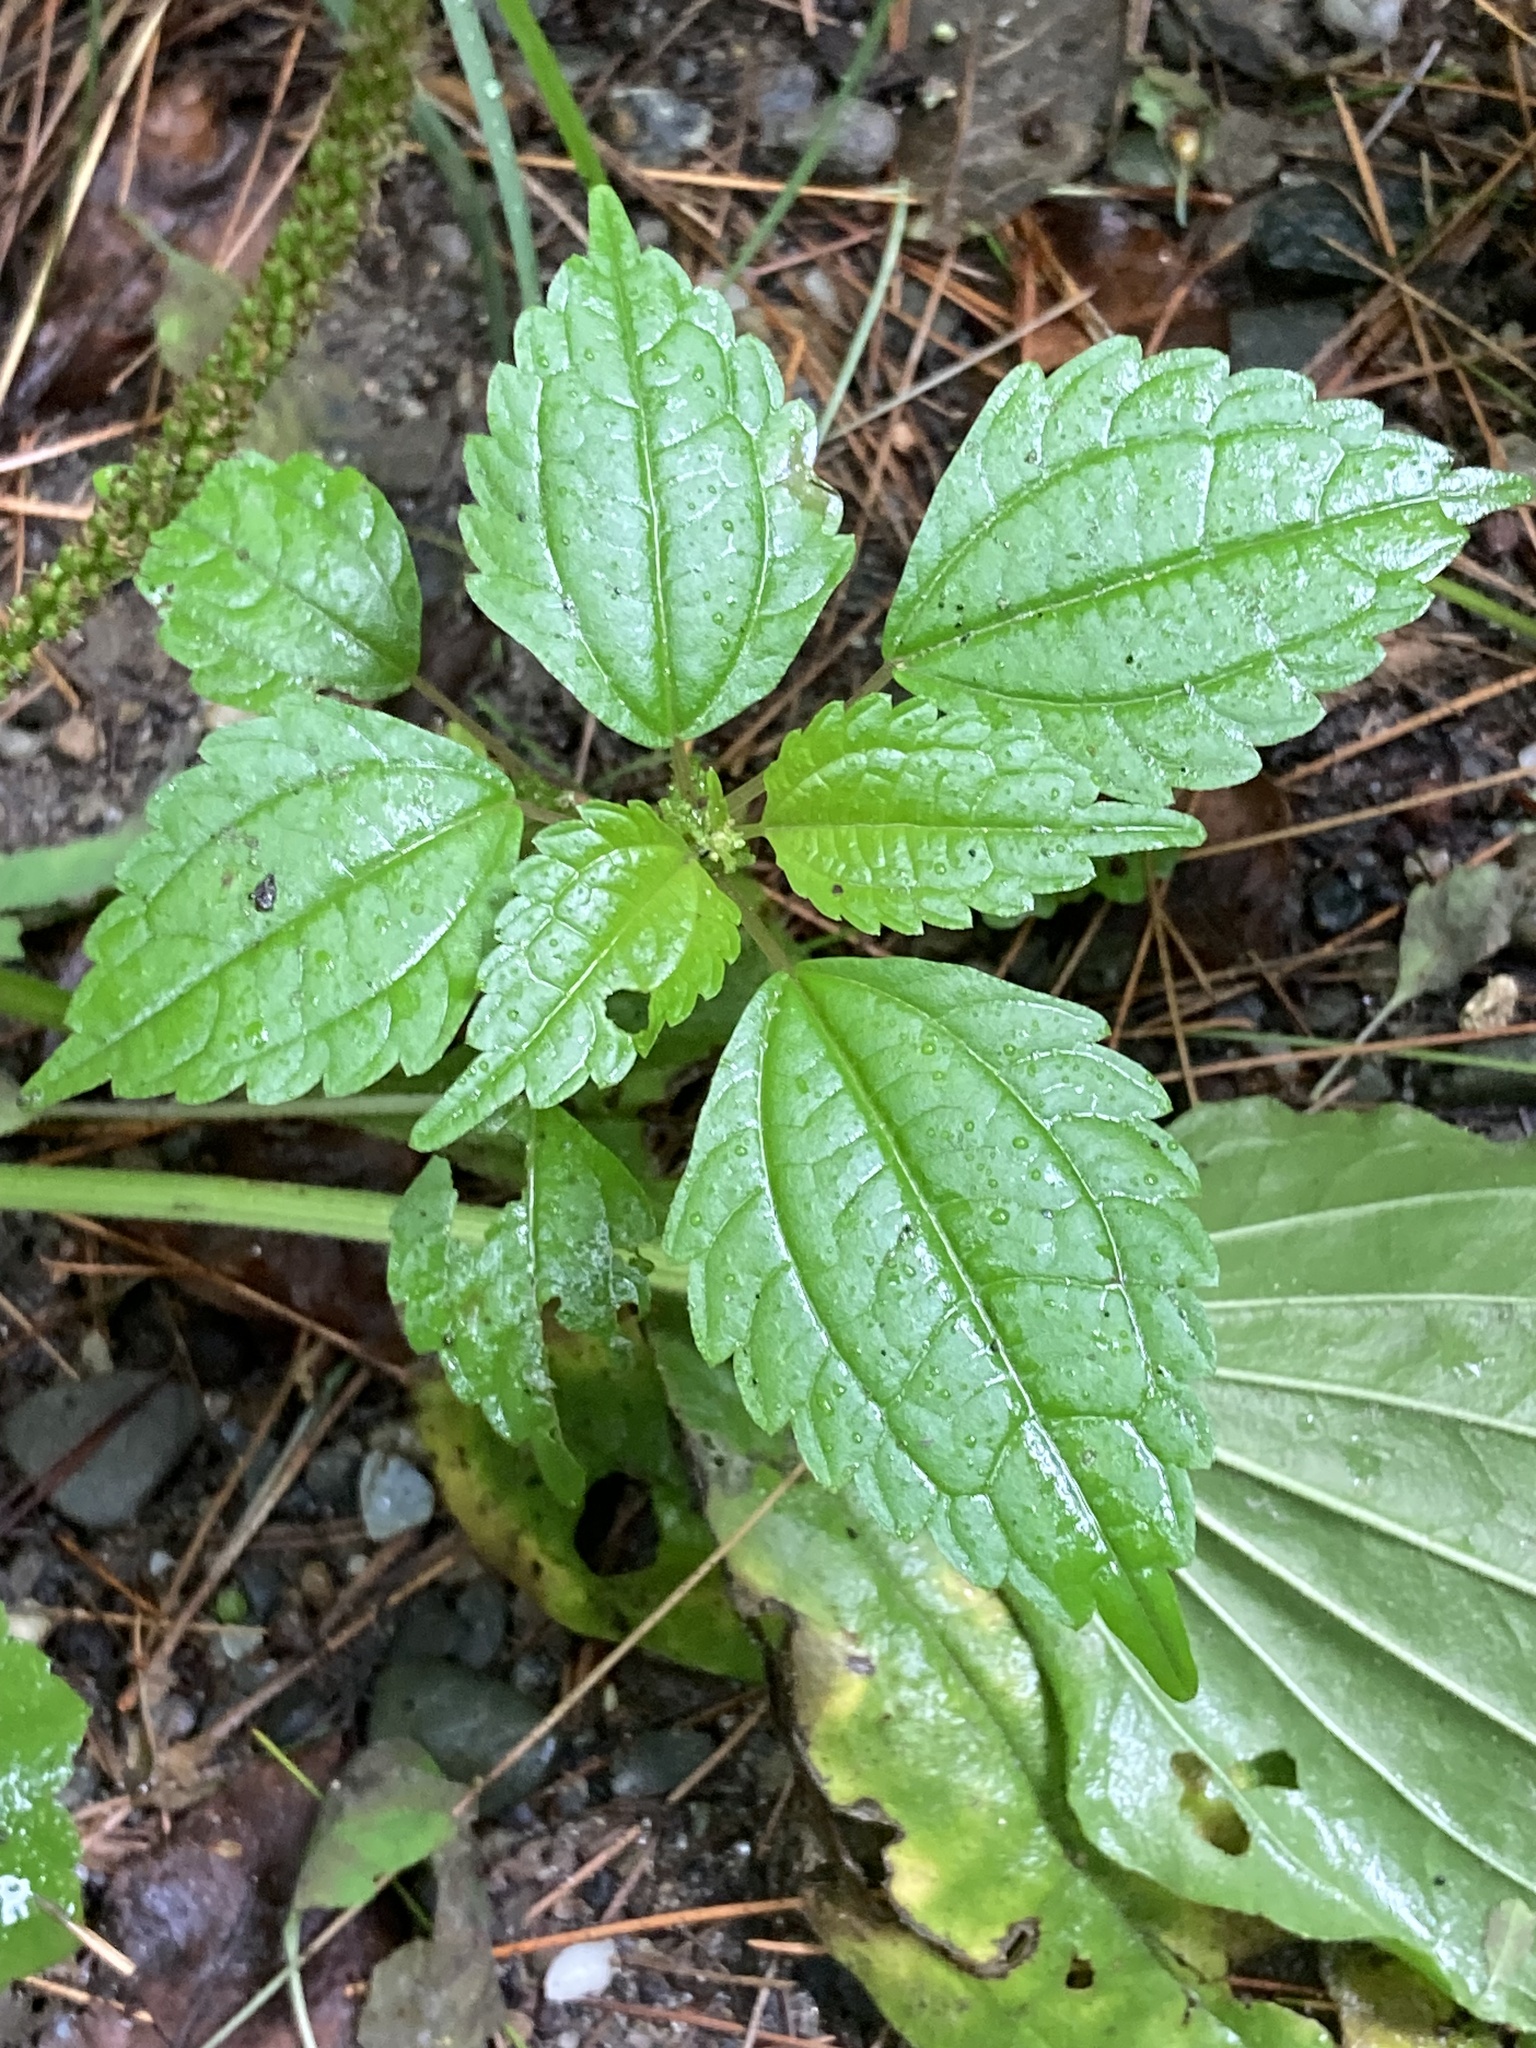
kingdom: Plantae
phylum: Tracheophyta
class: Magnoliopsida
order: Rosales
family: Urticaceae
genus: Pilea
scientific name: Pilea pumila
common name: Clearweed
